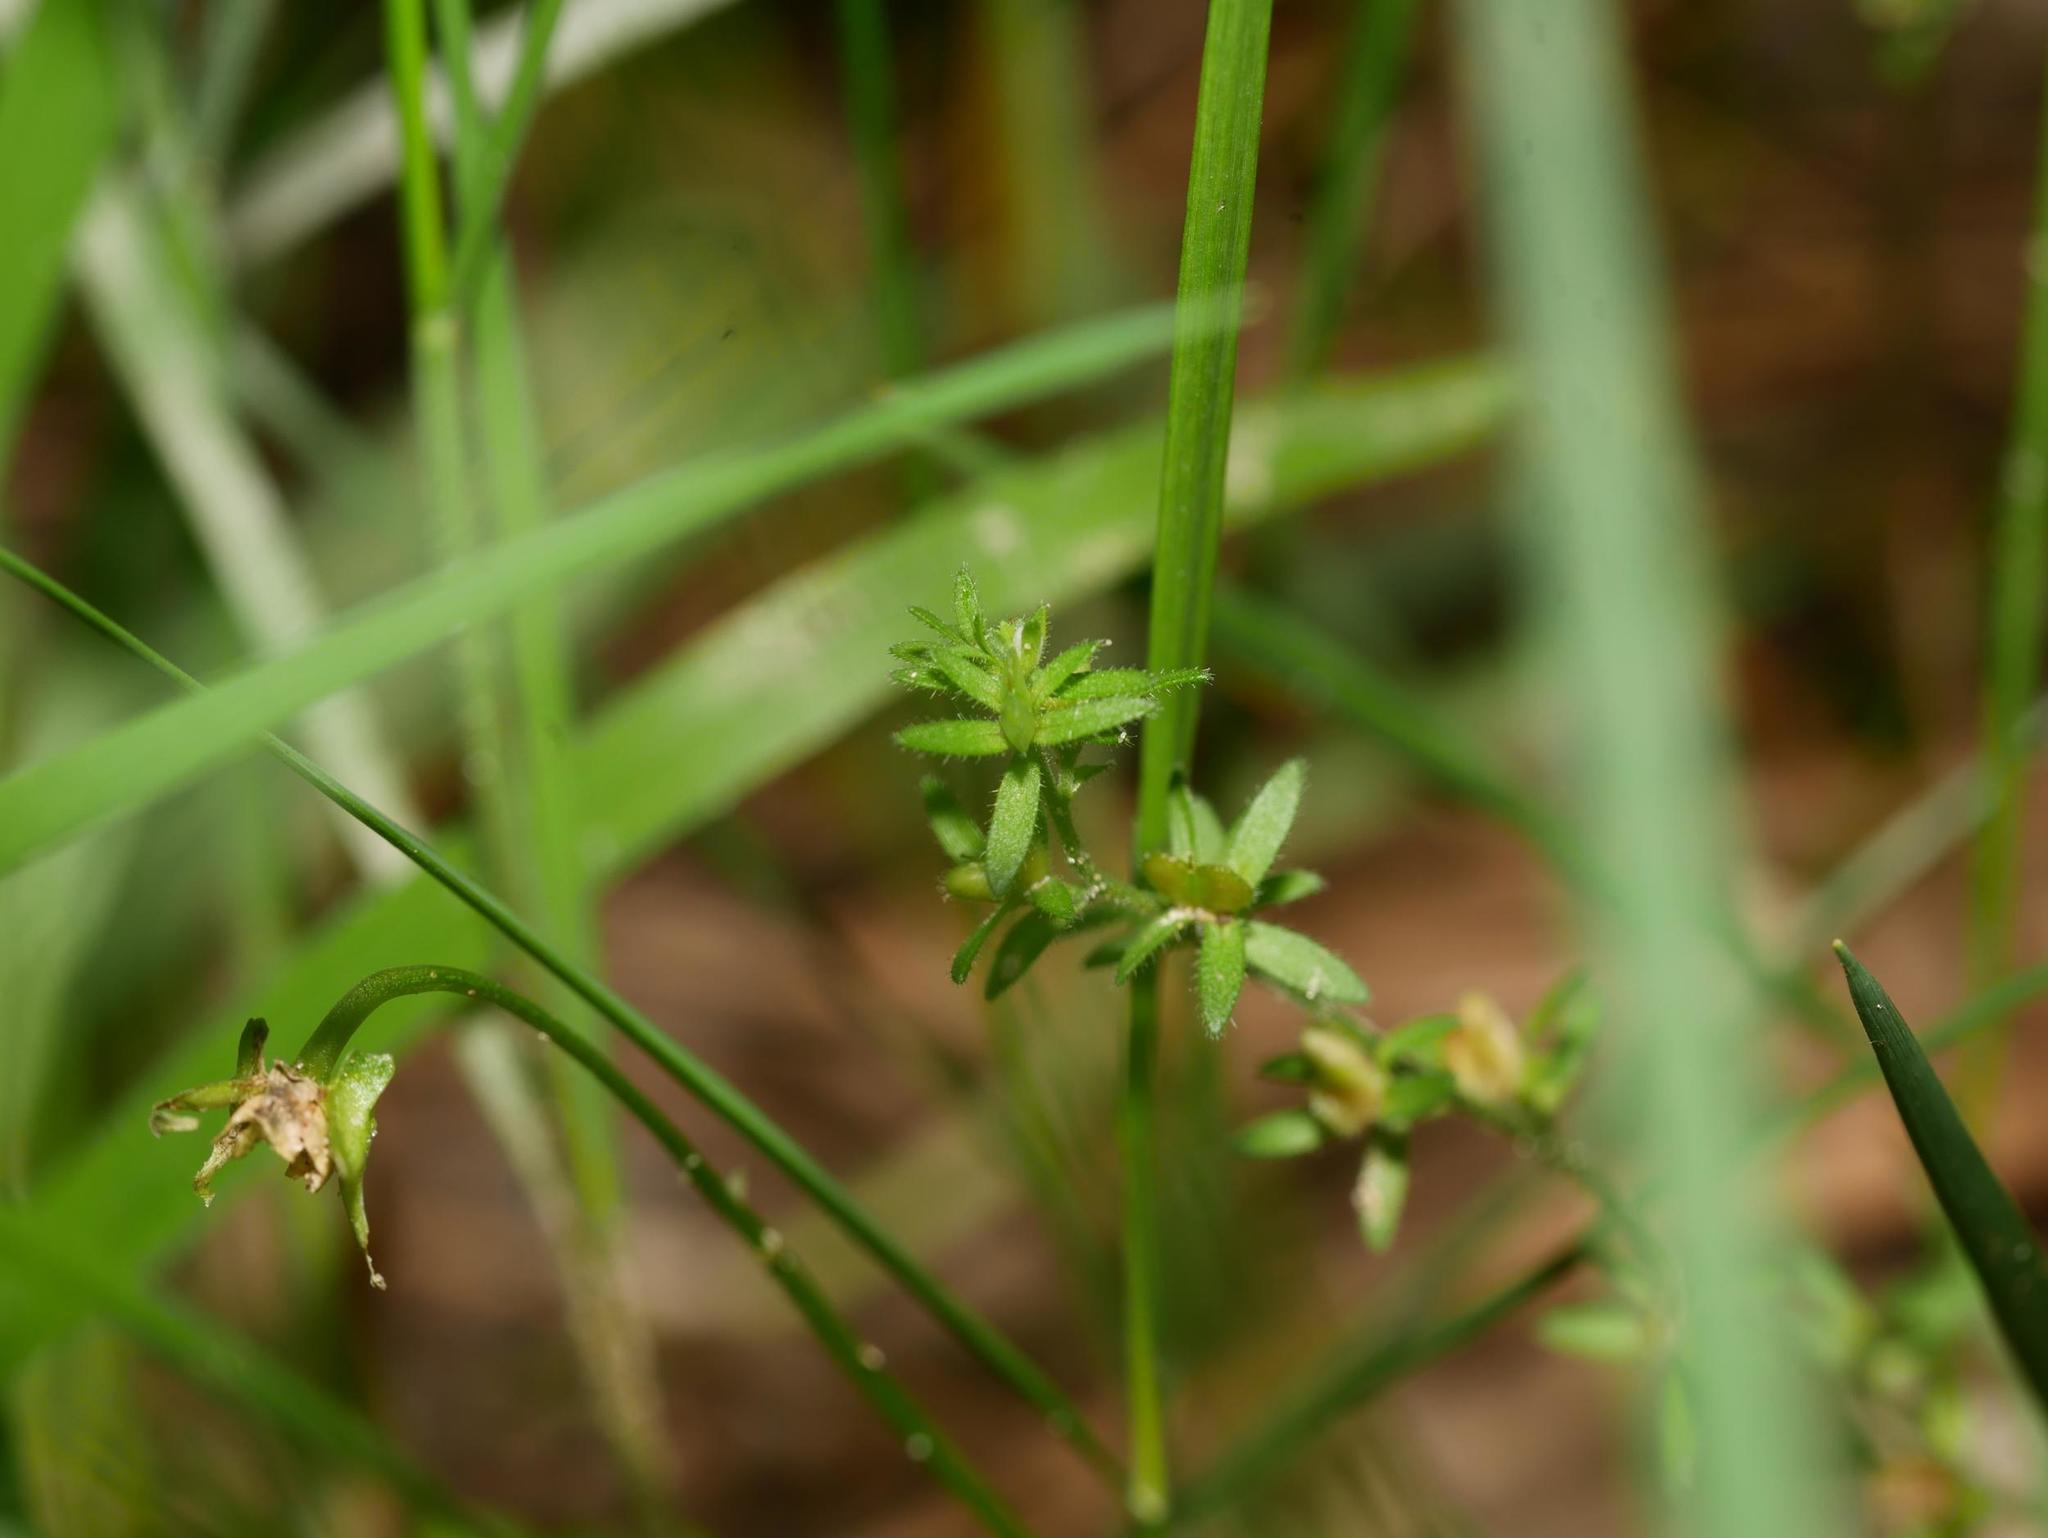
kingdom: Plantae
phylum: Tracheophyta
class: Magnoliopsida
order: Lamiales
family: Plantaginaceae
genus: Veronica
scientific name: Veronica arvensis
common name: Corn speedwell
